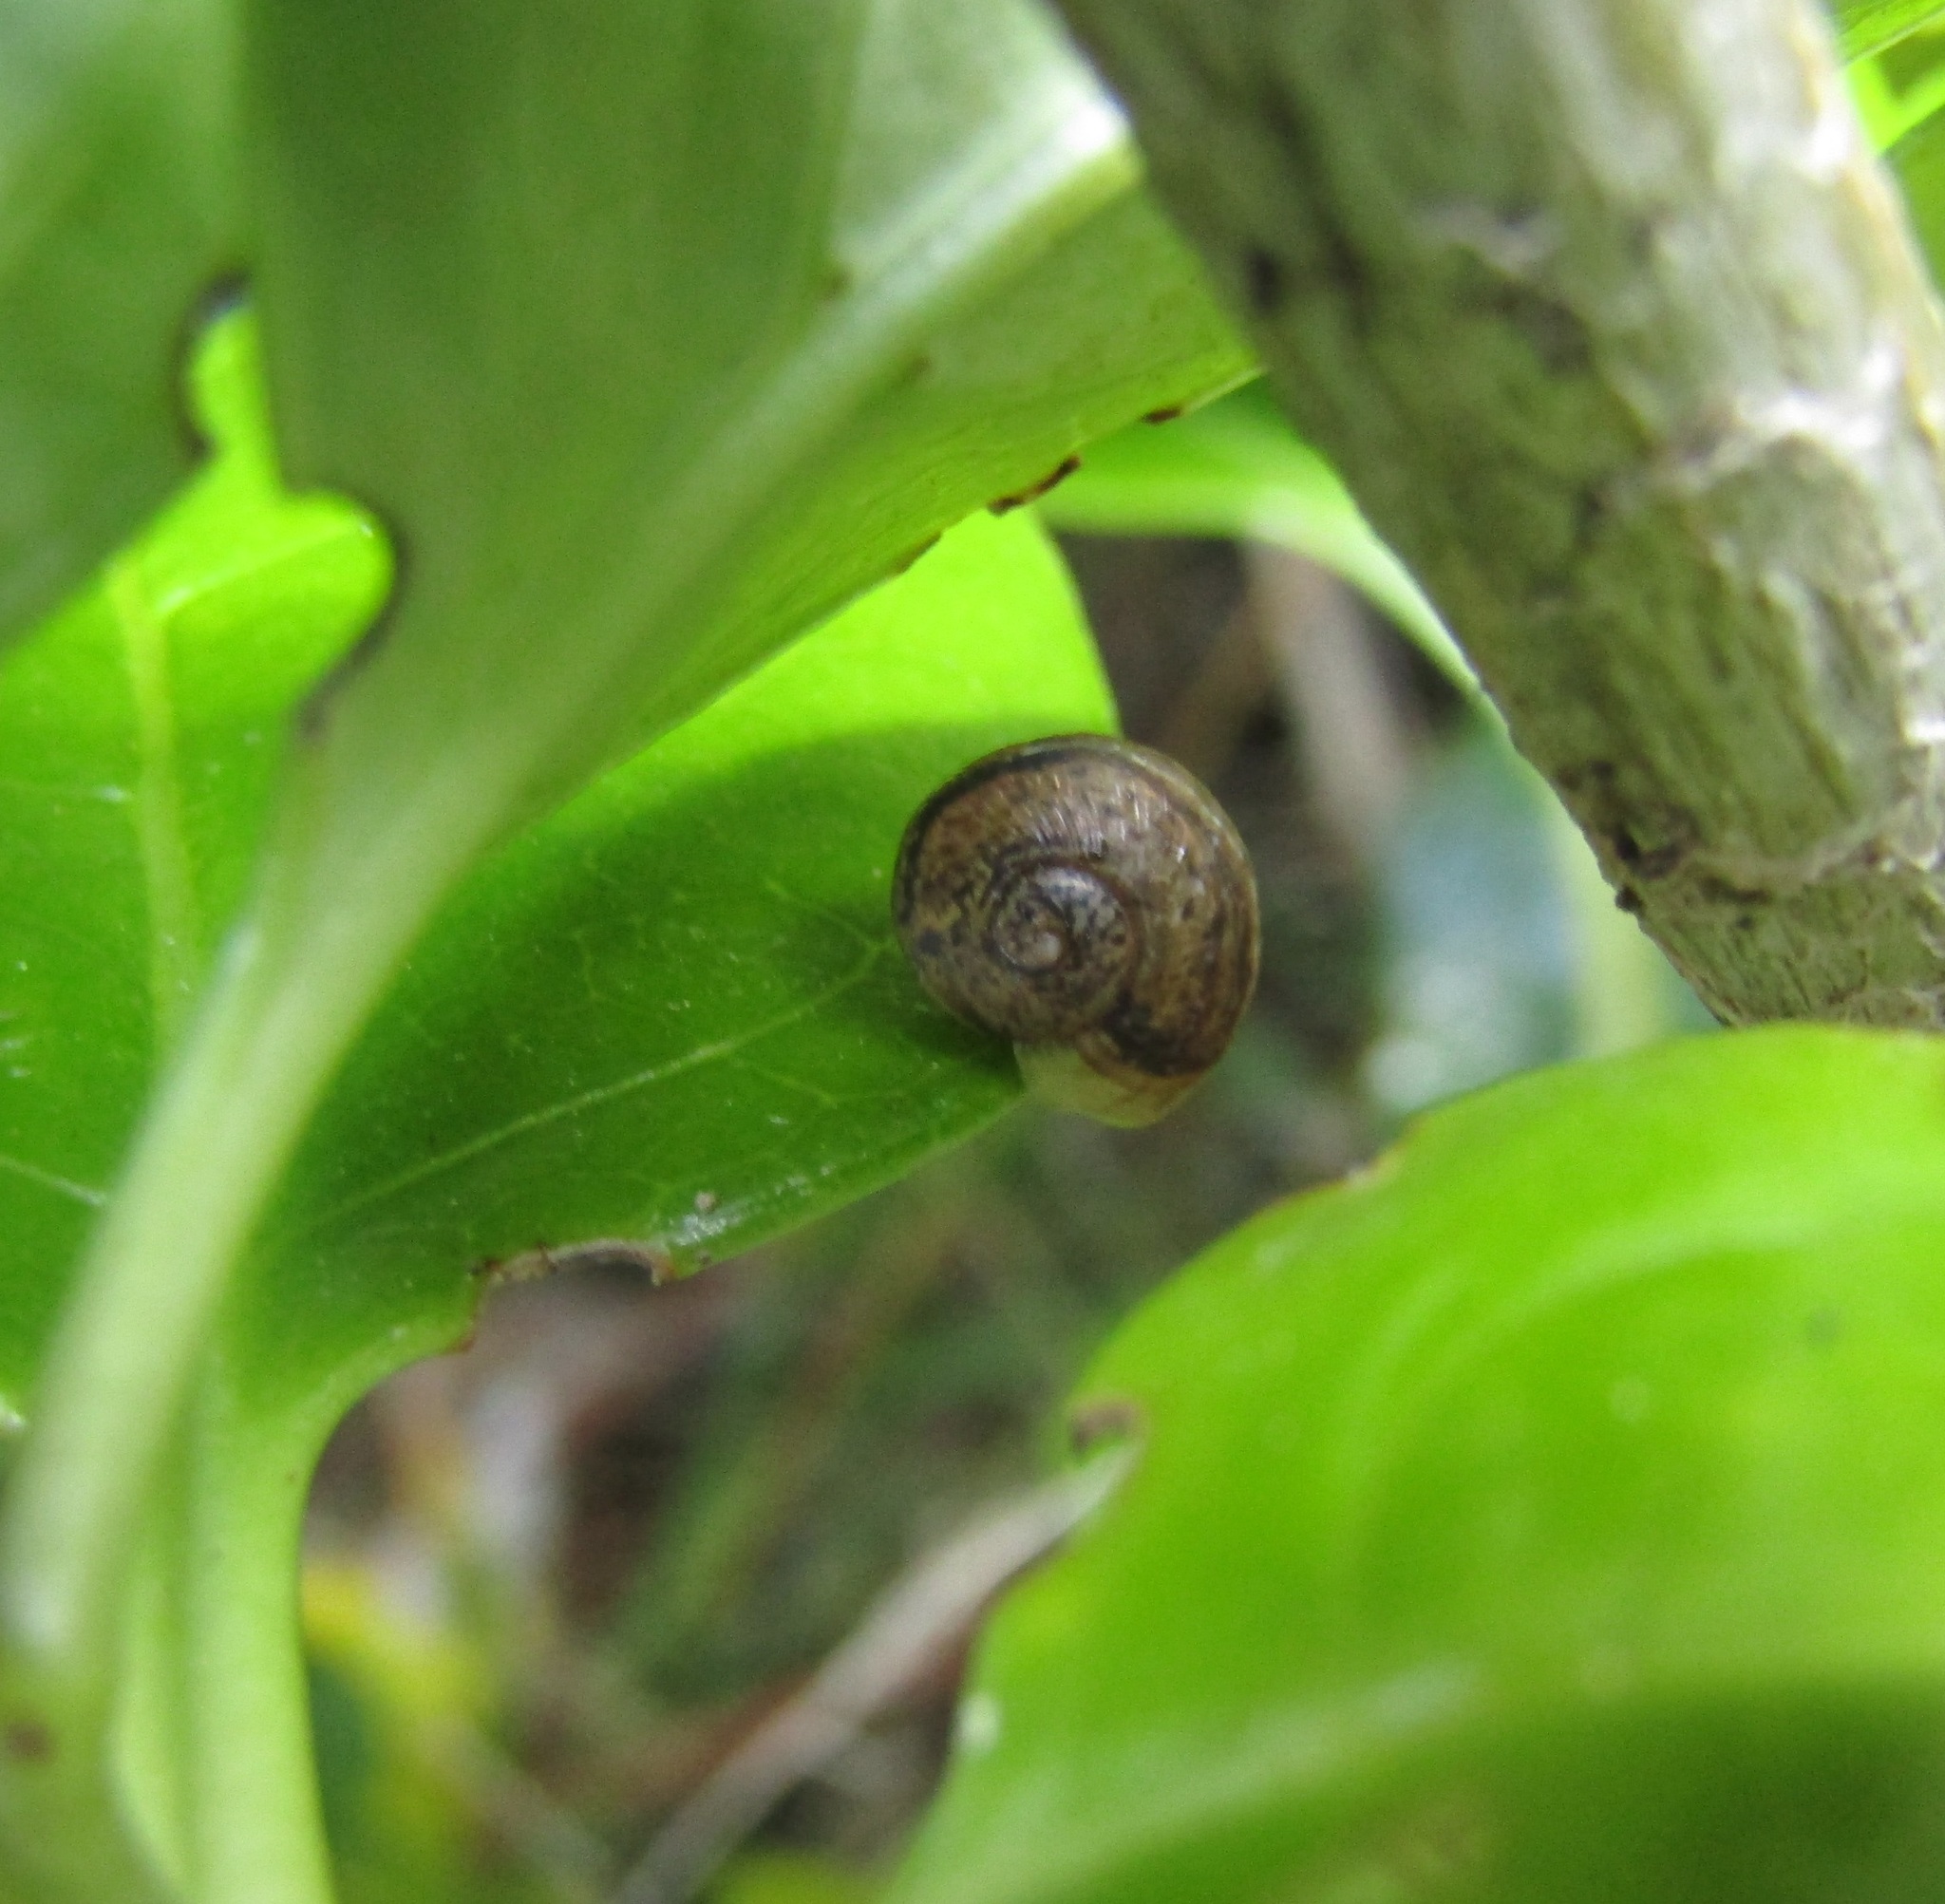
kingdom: Animalia
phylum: Mollusca
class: Gastropoda
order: Stylommatophora
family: Helicidae
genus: Cornu
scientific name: Cornu aspersum
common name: Brown garden snail
